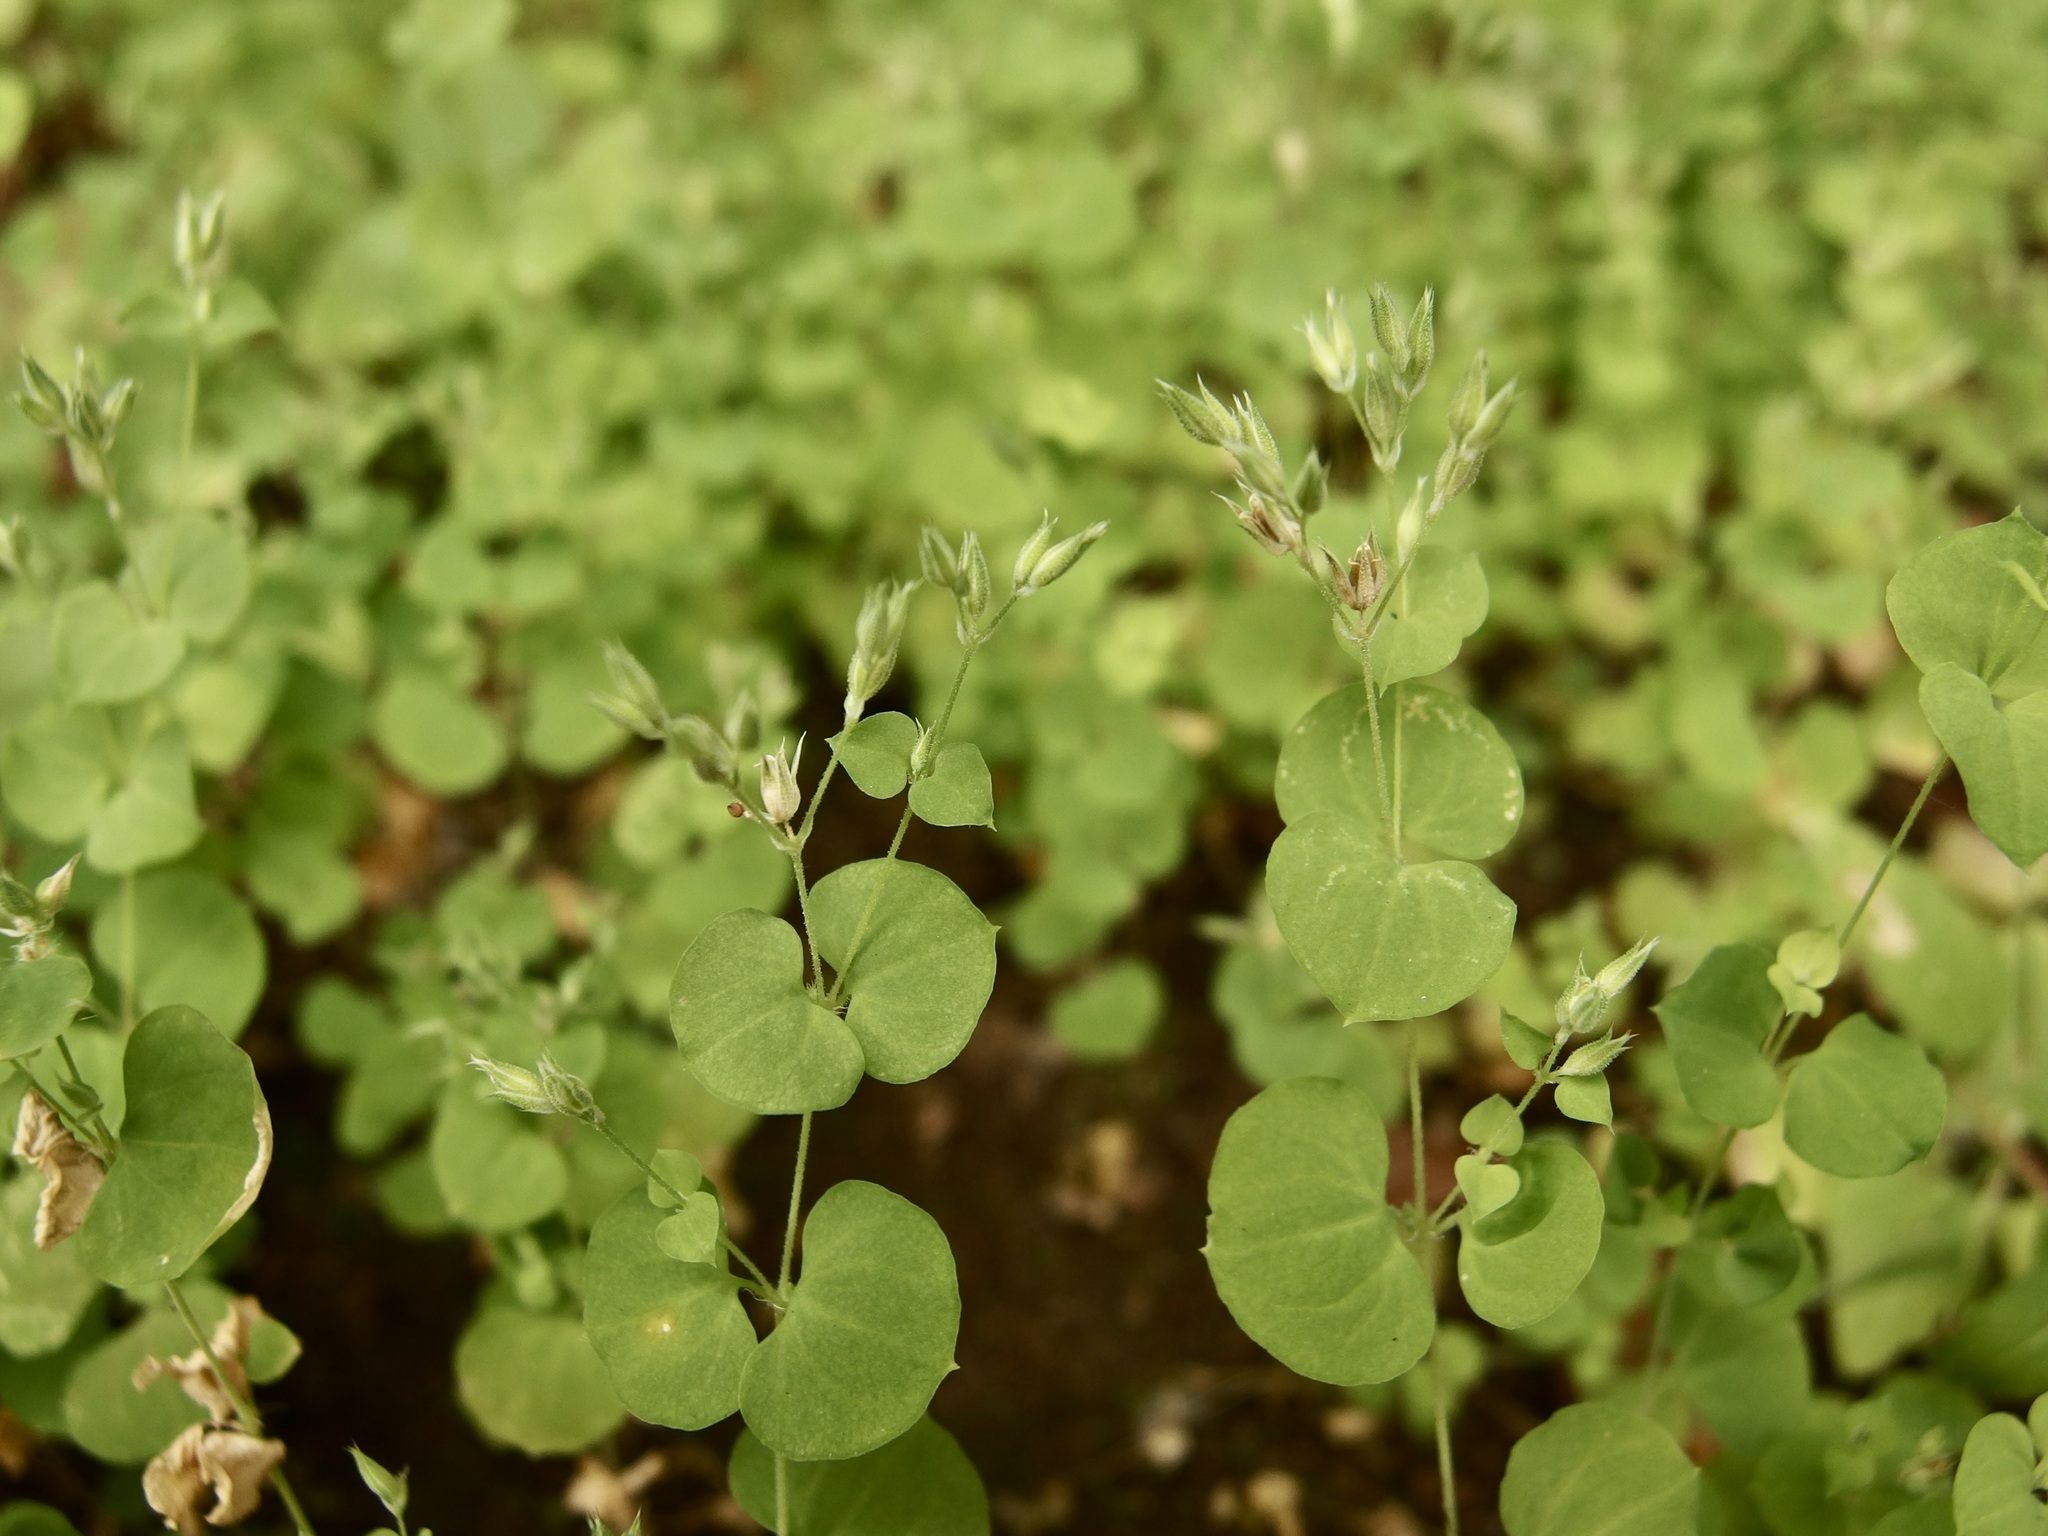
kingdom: Plantae
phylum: Tracheophyta
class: Magnoliopsida
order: Caryophyllales
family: Caryophyllaceae
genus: Drymaria
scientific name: Drymaria glandulosa
